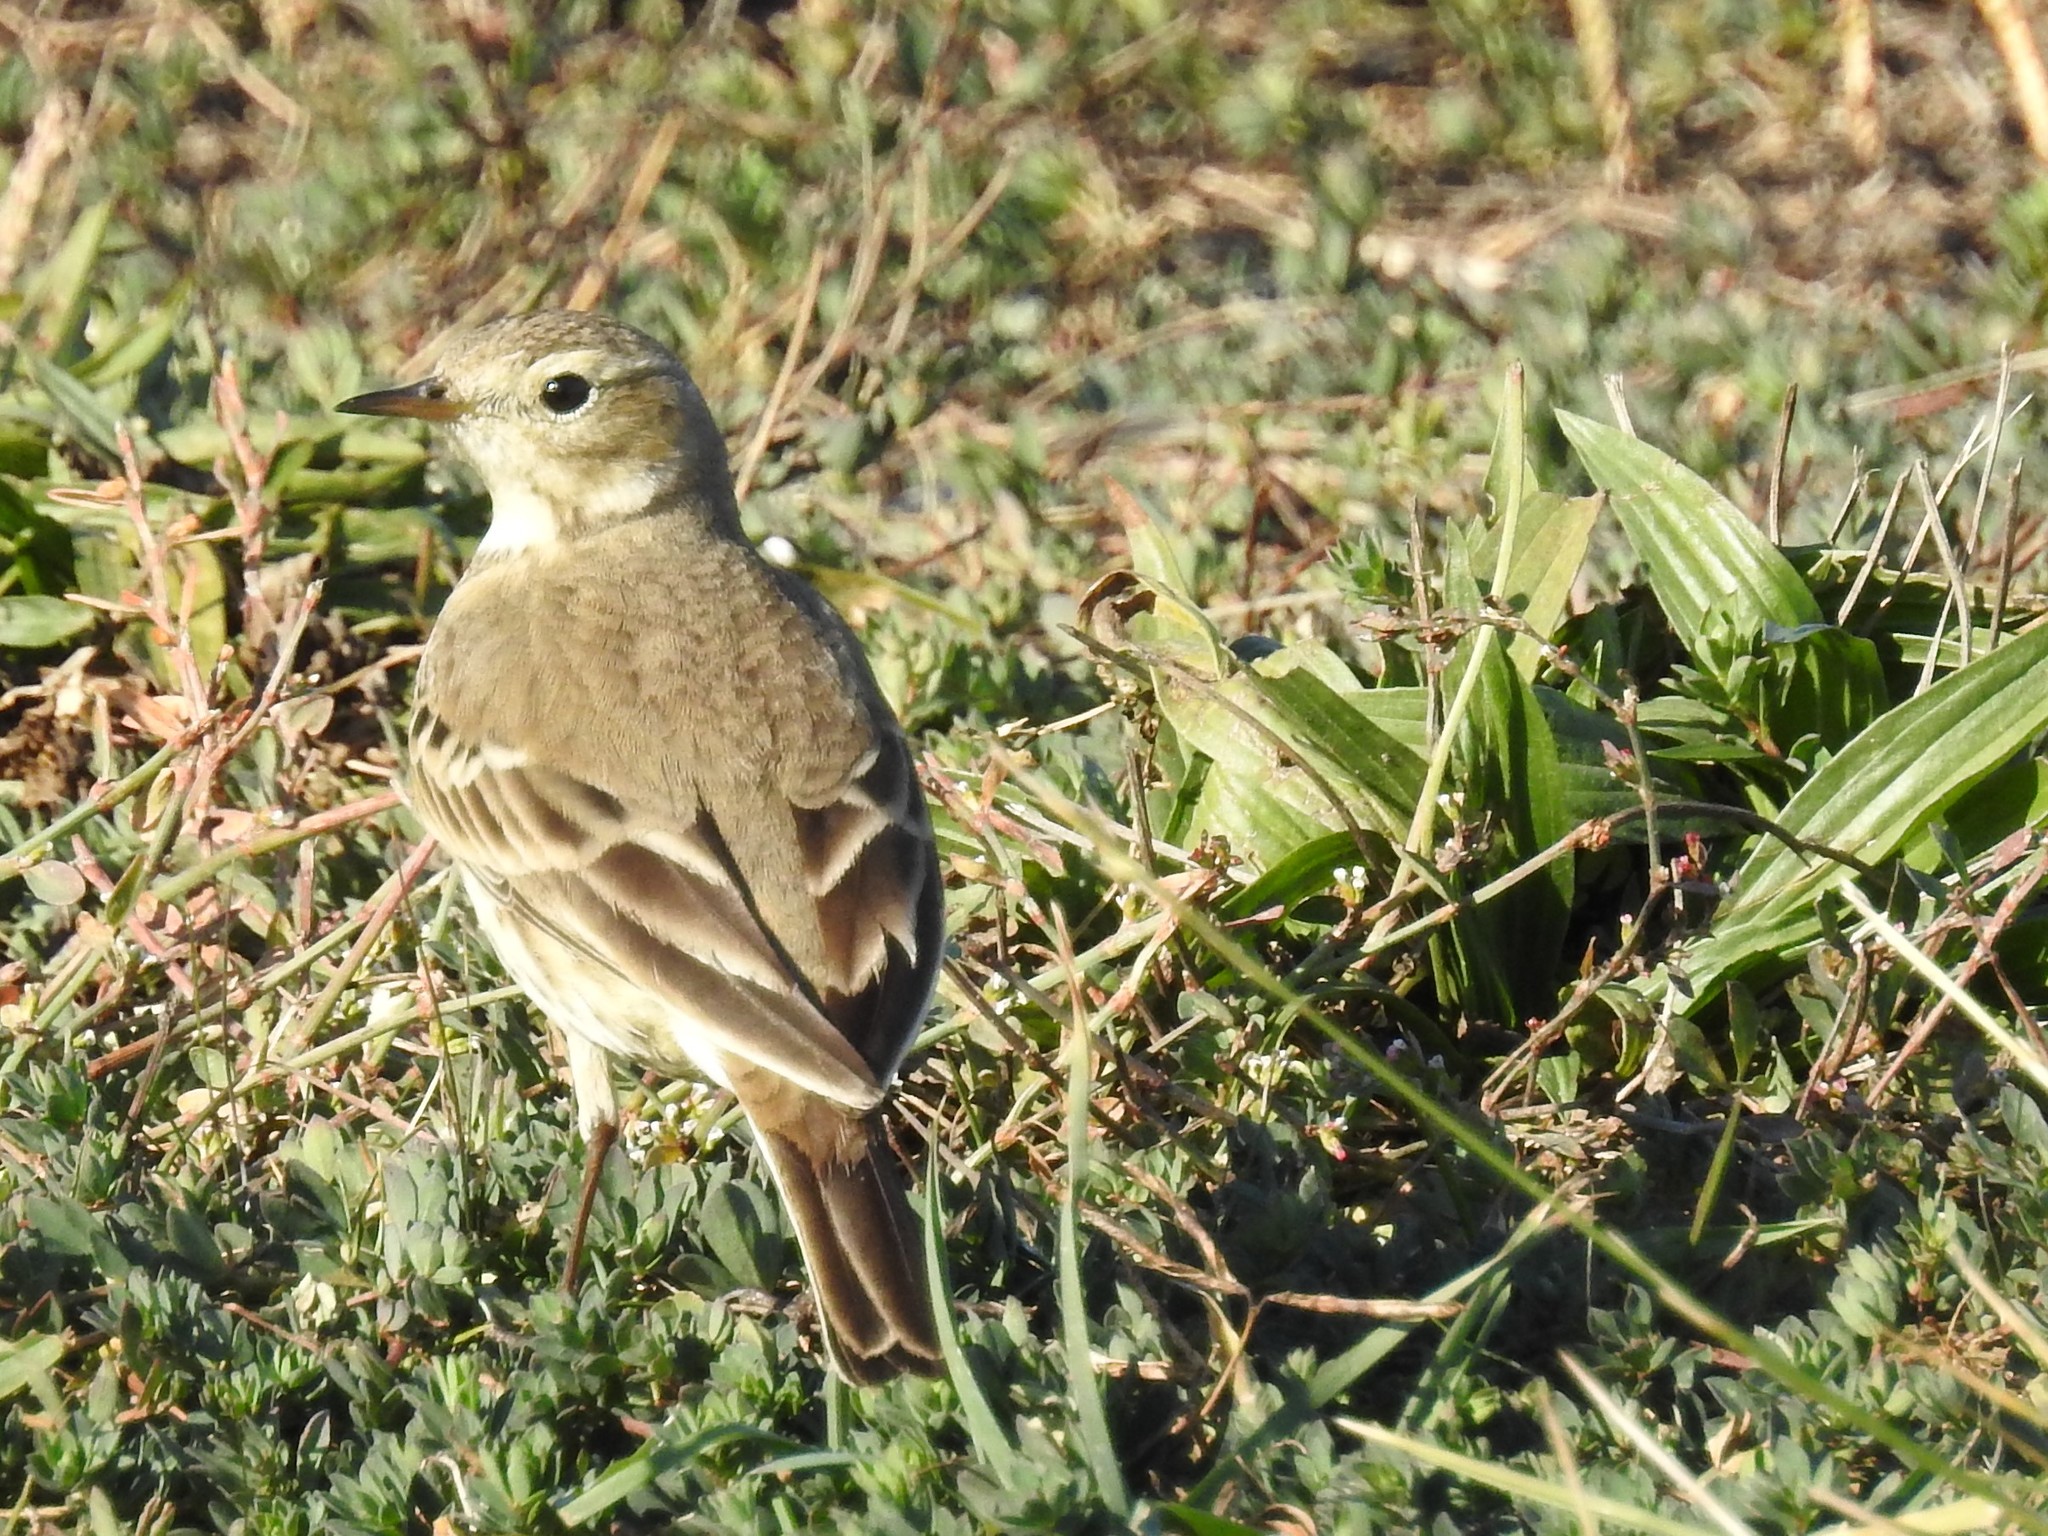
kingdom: Animalia
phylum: Chordata
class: Aves
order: Passeriformes
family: Motacillidae
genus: Anthus
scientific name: Anthus rubescens
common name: Buff-bellied pipit
